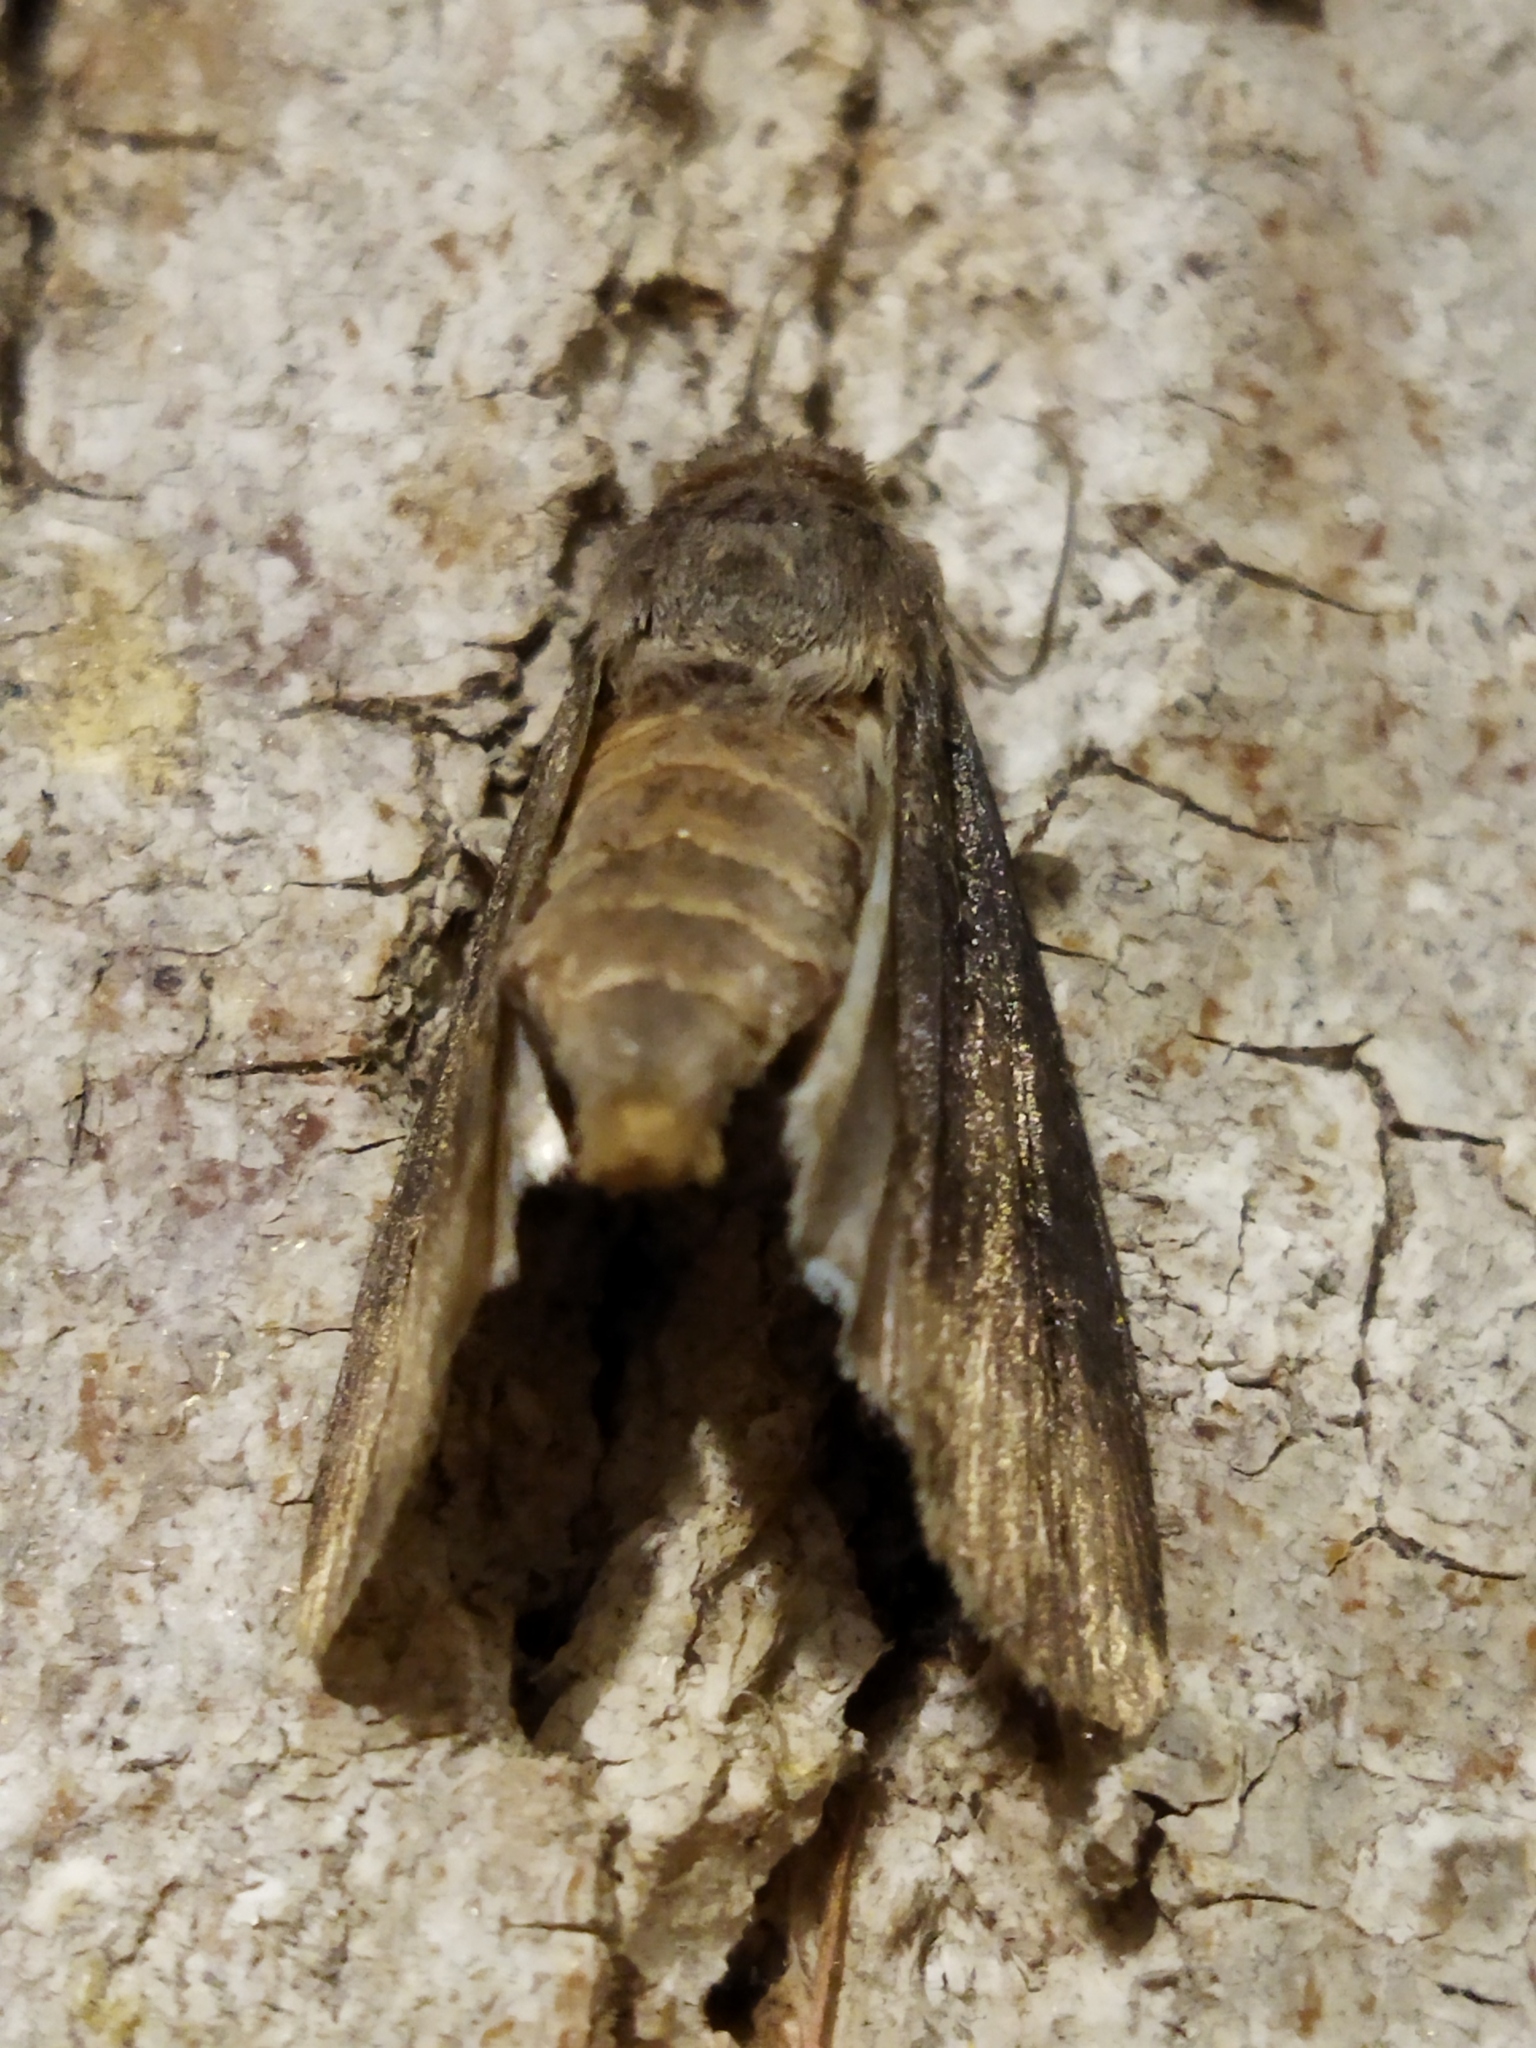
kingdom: Animalia
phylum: Arthropoda
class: Insecta
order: Lepidoptera
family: Noctuidae
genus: Agrotis
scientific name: Agrotis ipsilon
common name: Dark sword-grass
